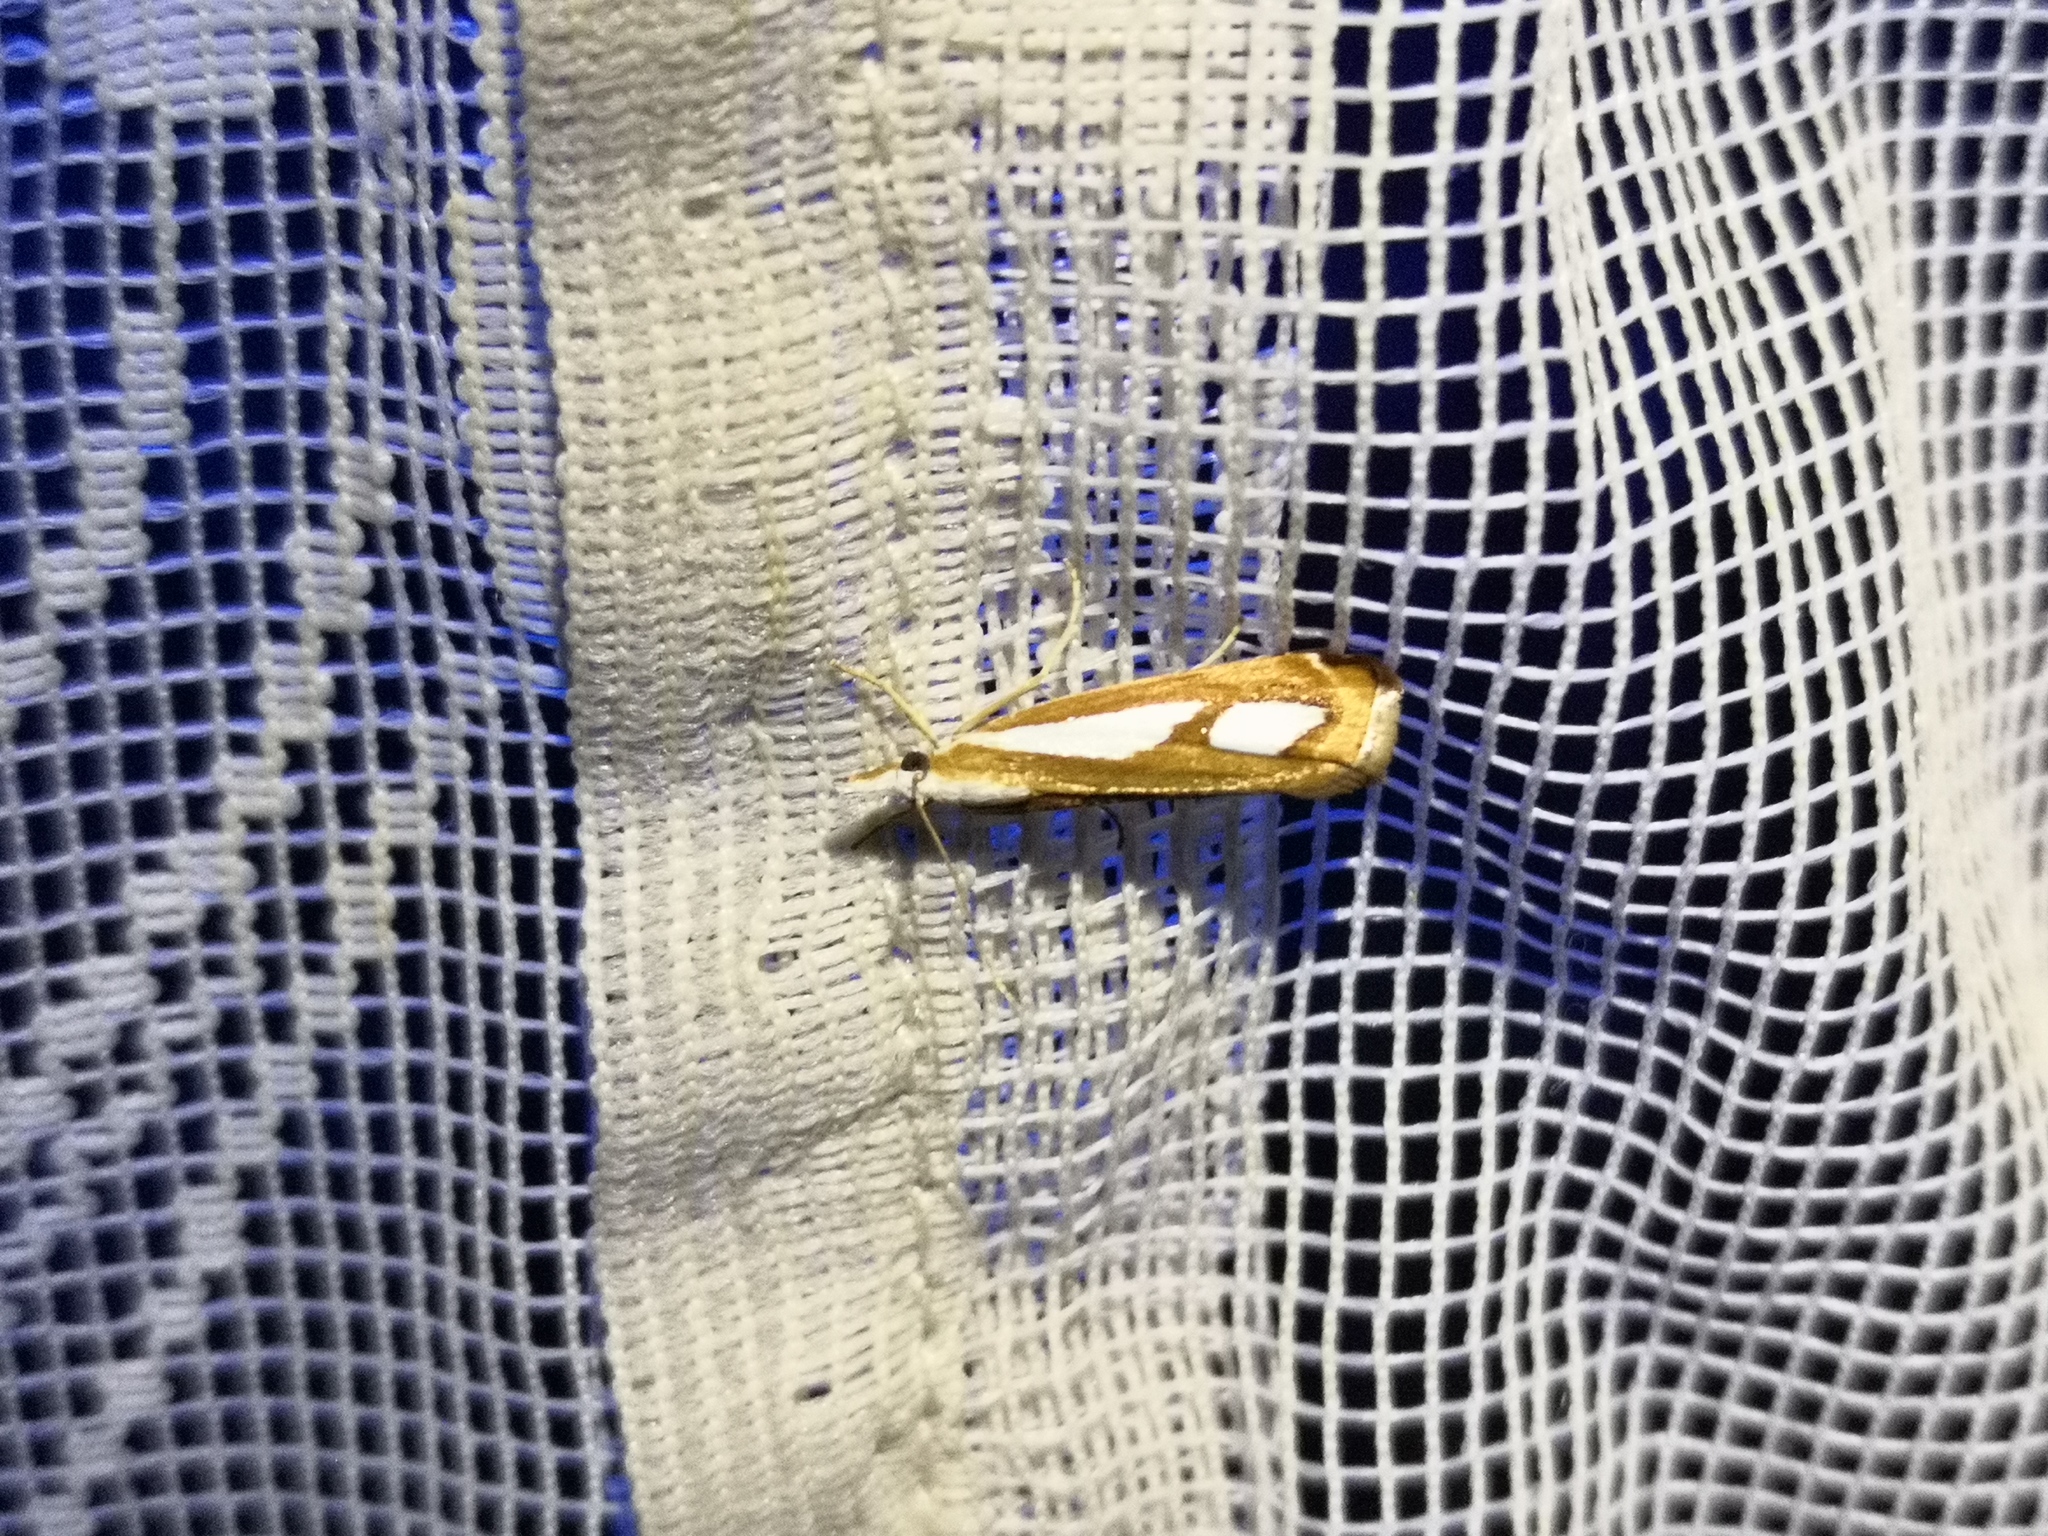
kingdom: Animalia
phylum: Arthropoda
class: Insecta
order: Lepidoptera
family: Crambidae
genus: Catoptria
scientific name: Catoptria mytilella
